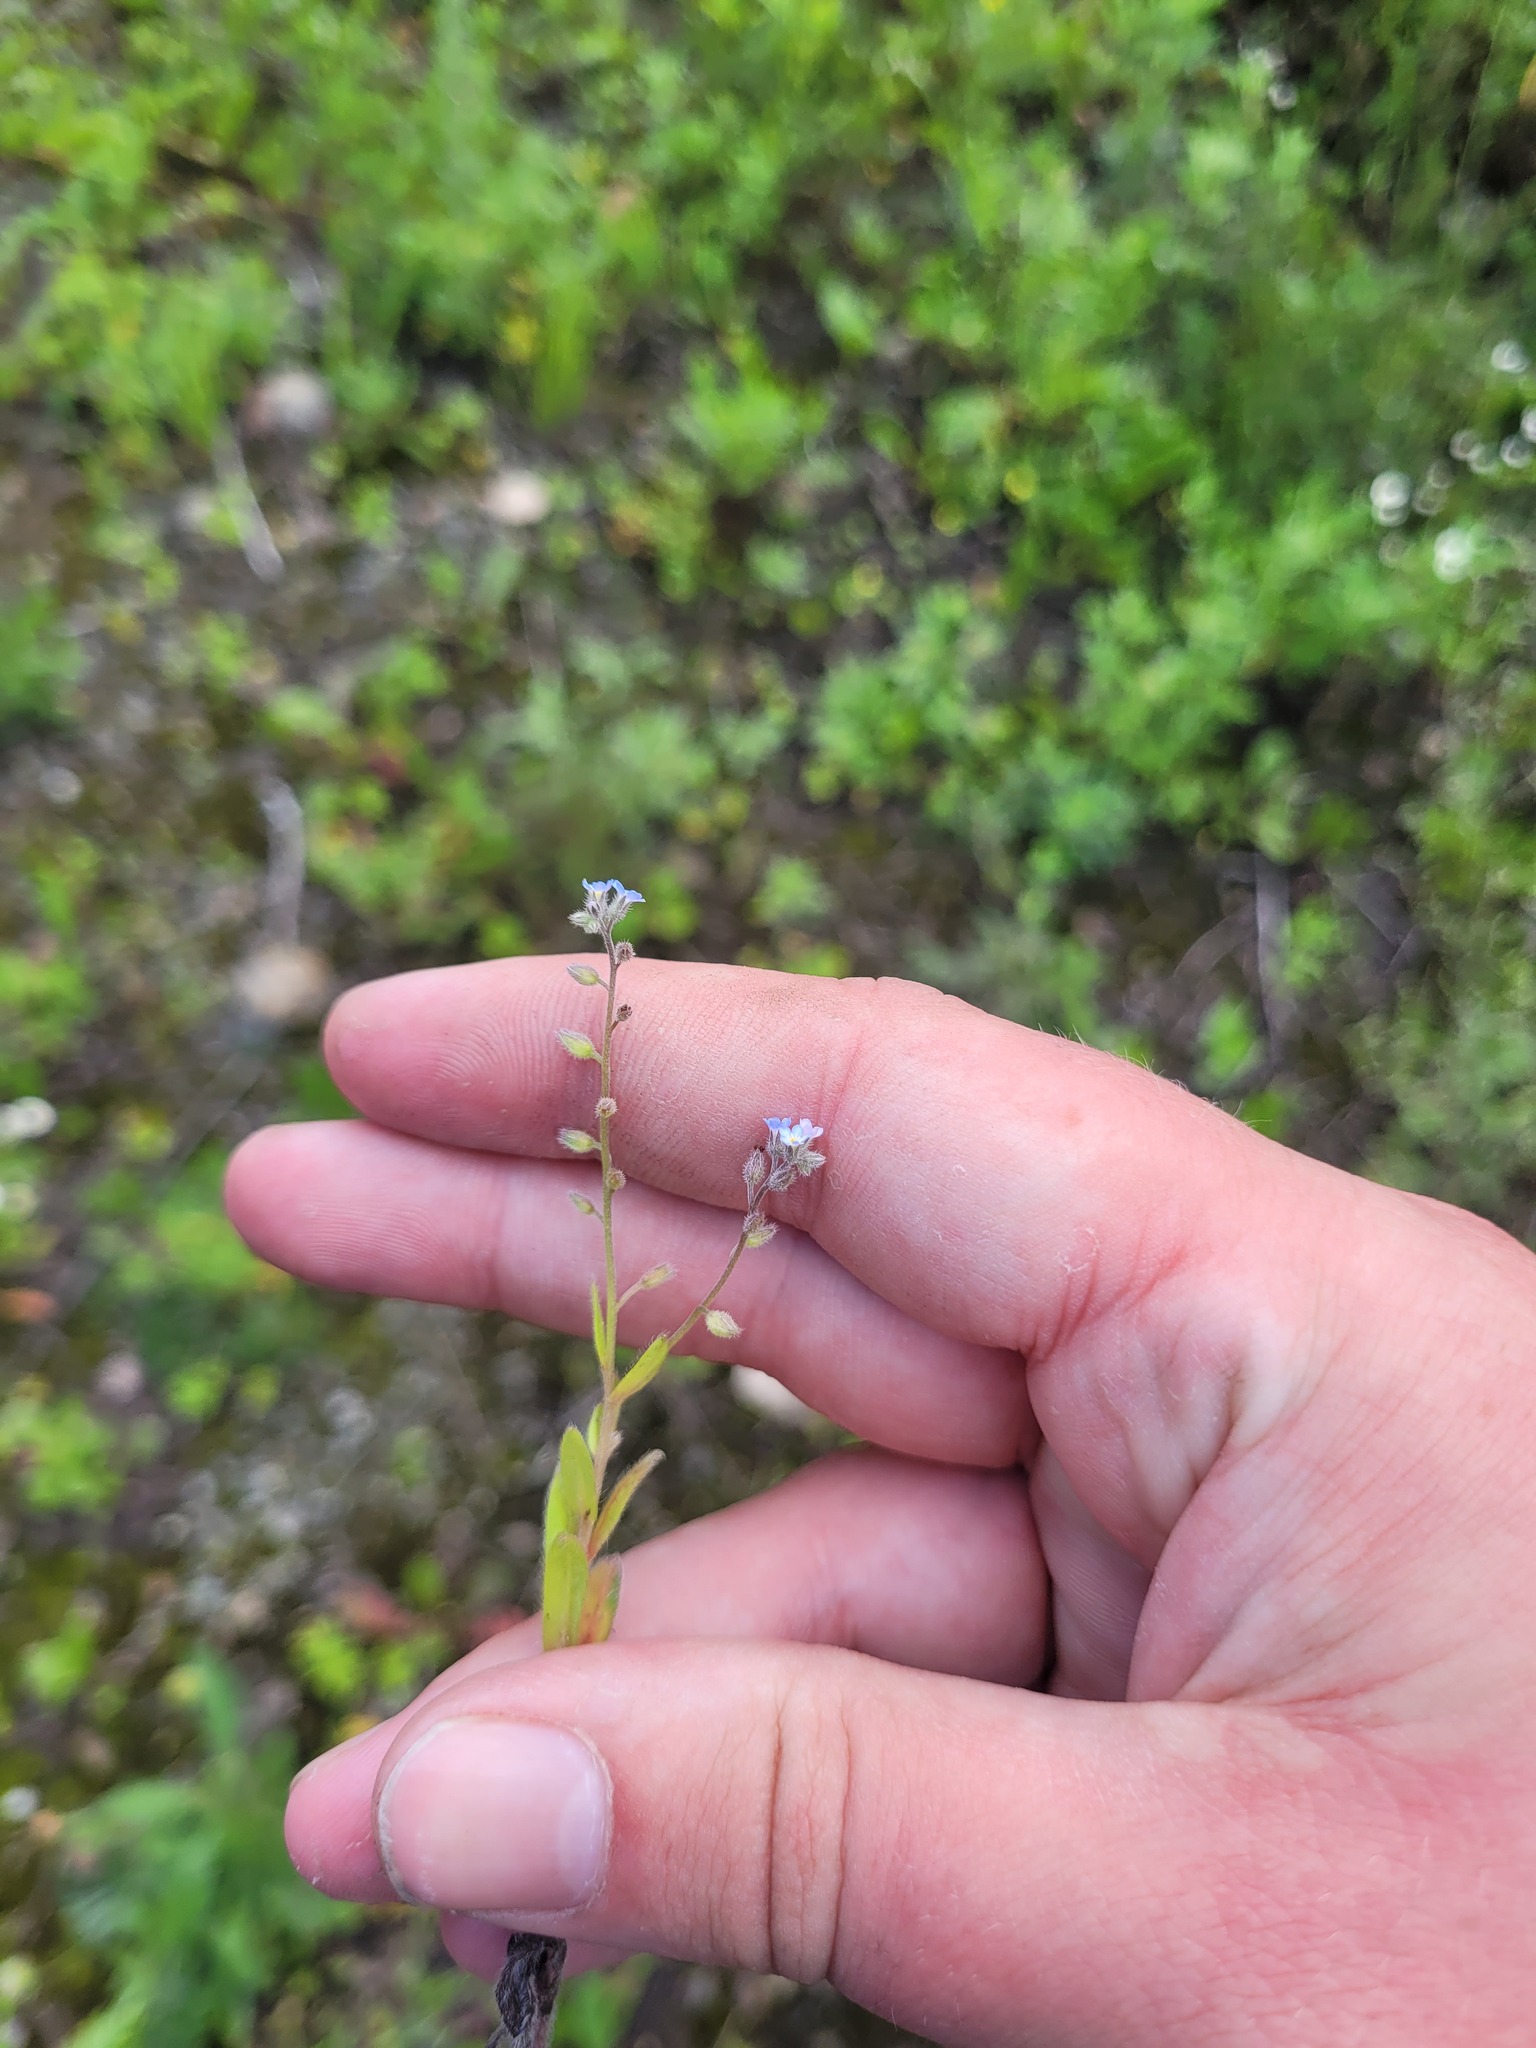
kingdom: Plantae
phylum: Tracheophyta
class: Magnoliopsida
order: Boraginales
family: Boraginaceae
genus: Myosotis
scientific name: Myosotis arvensis
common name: Field forget-me-not
